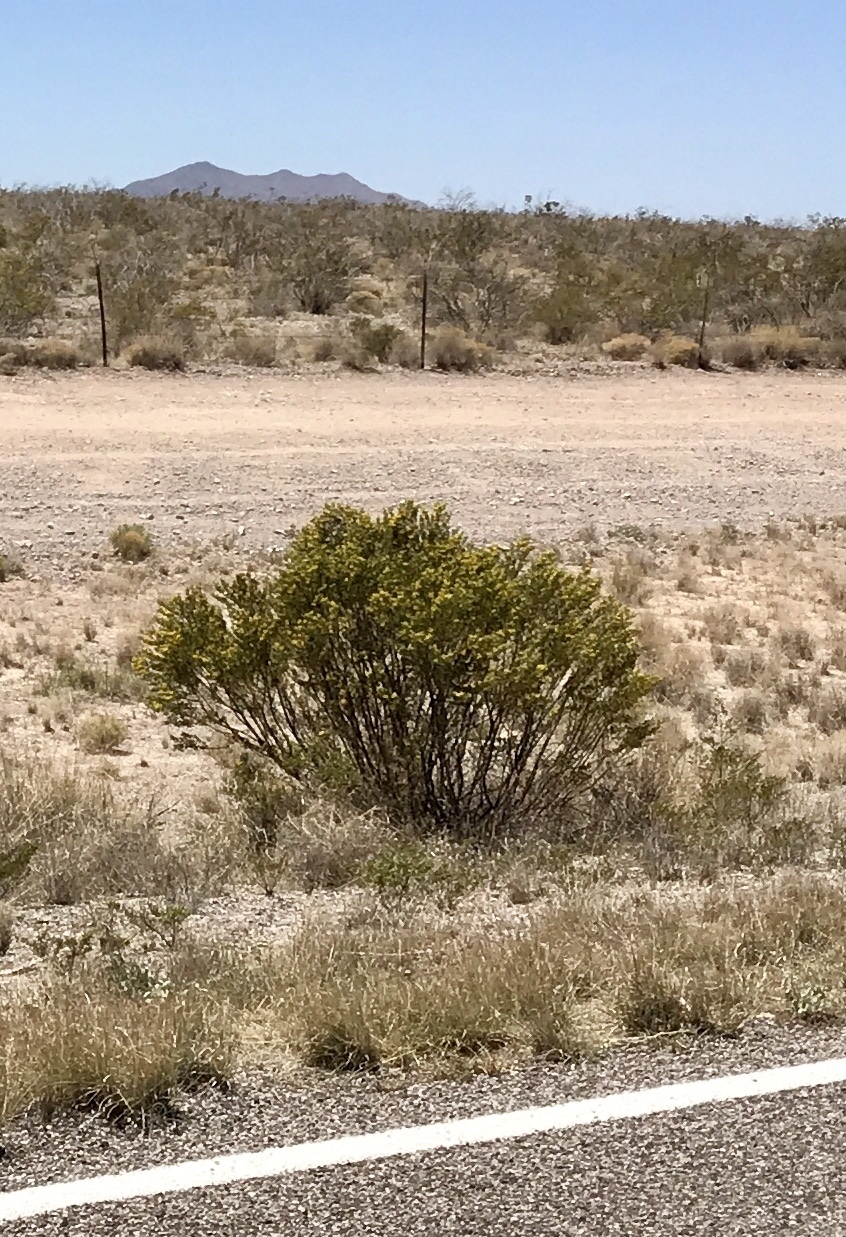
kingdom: Plantae
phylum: Tracheophyta
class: Magnoliopsida
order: Zygophyllales
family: Zygophyllaceae
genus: Larrea
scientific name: Larrea tridentata
